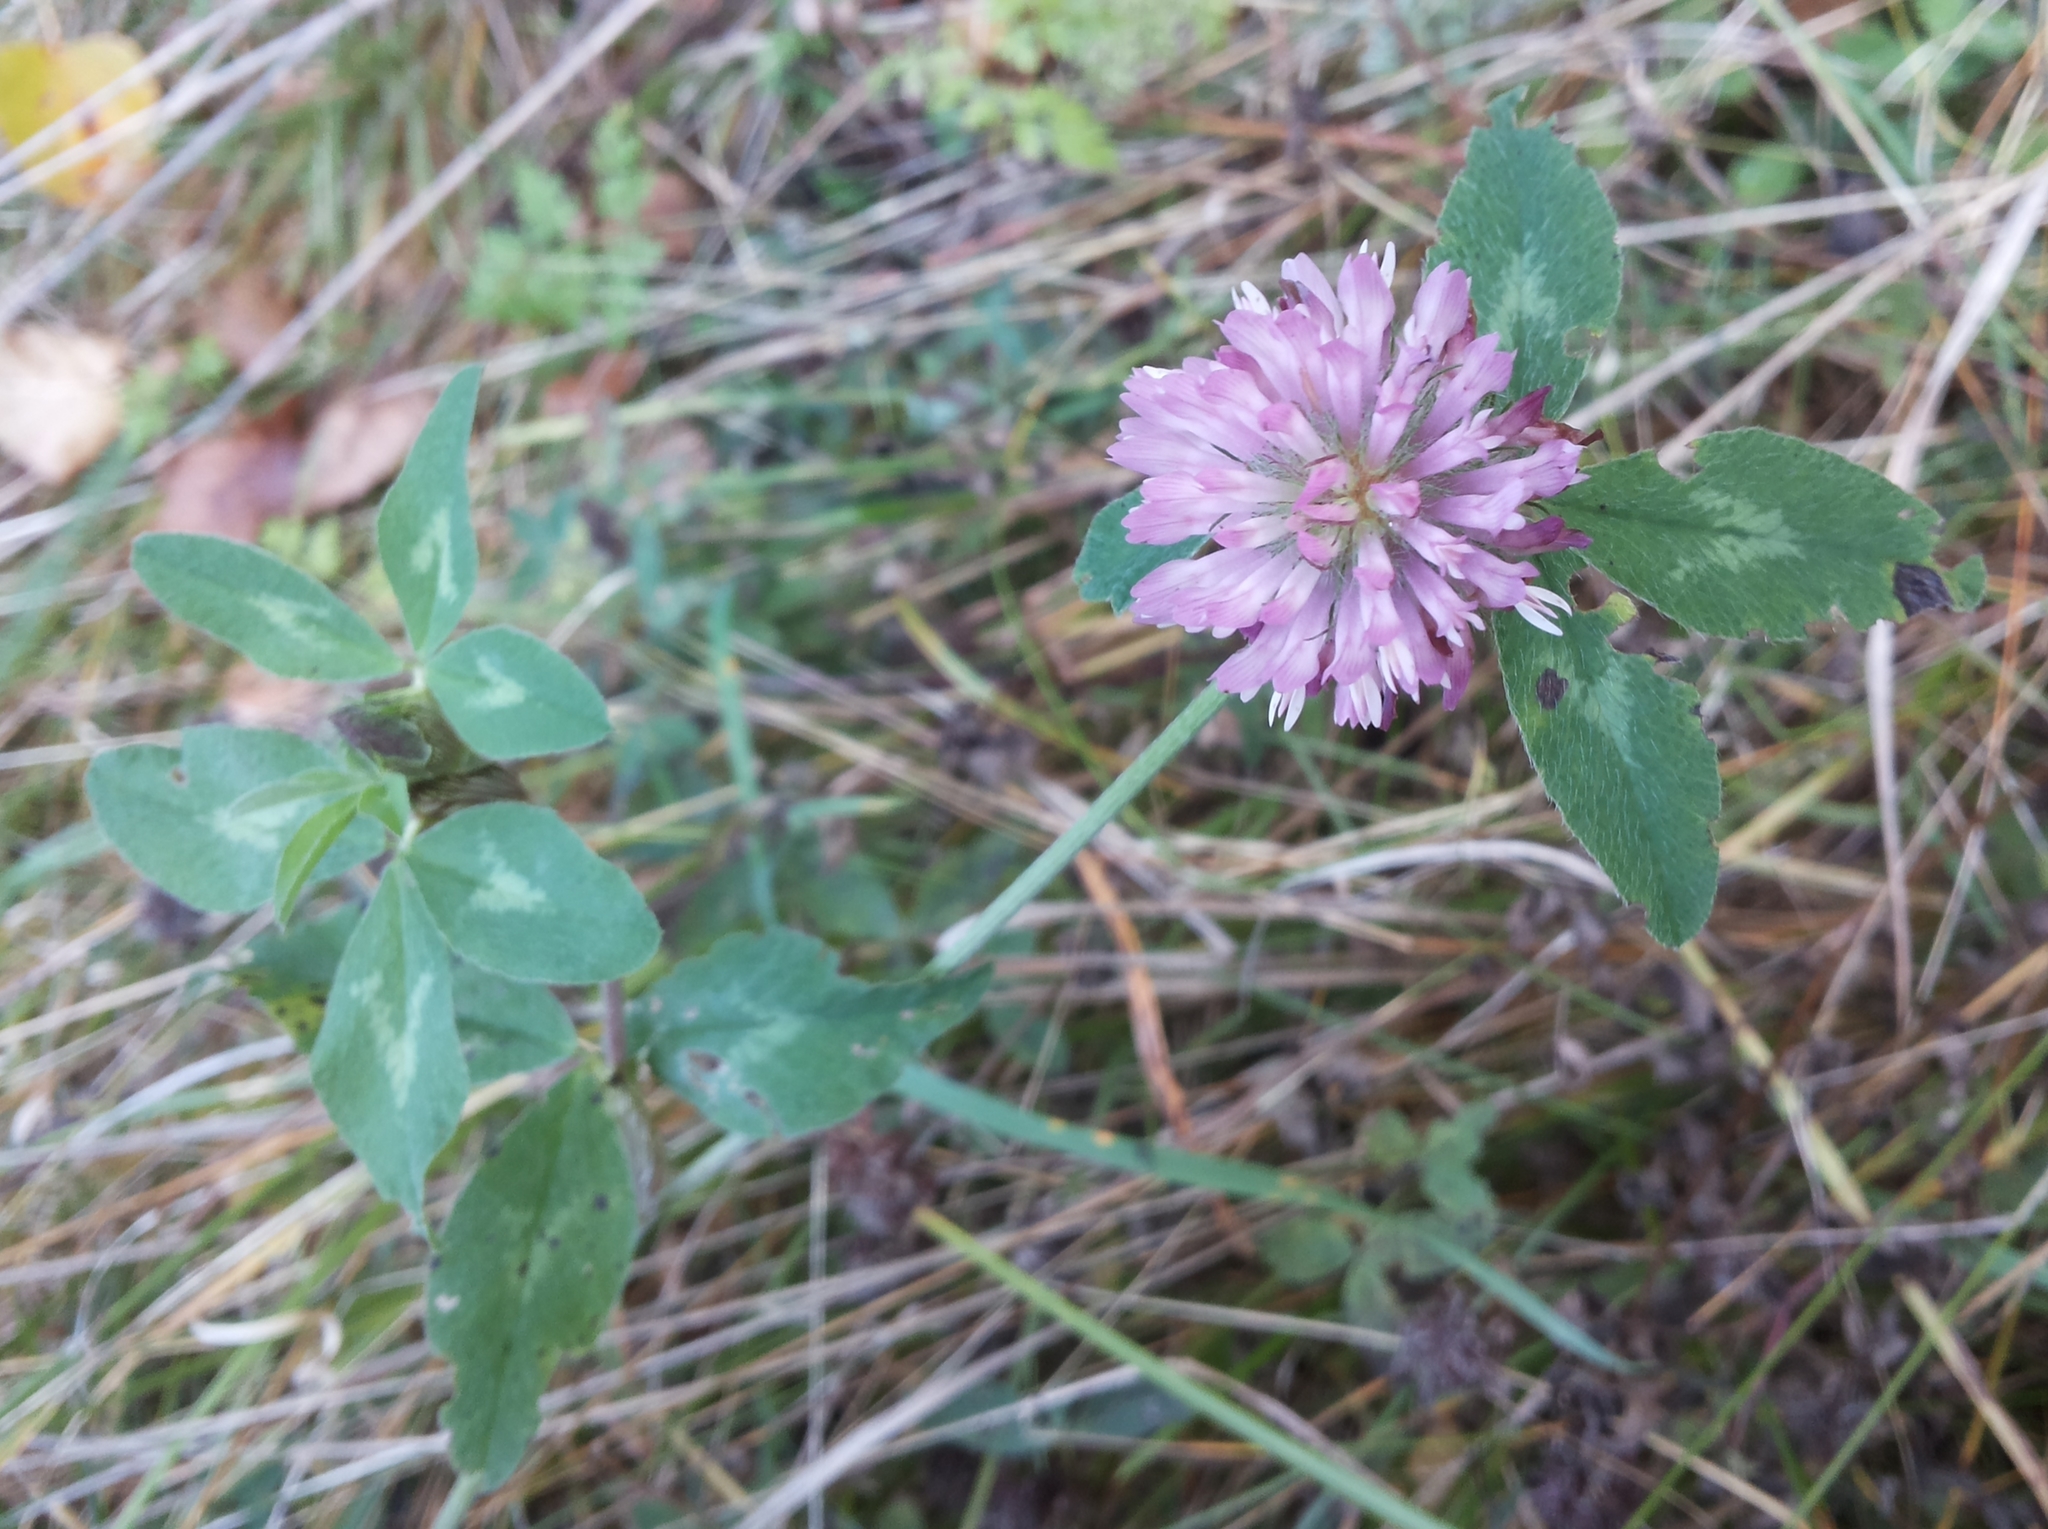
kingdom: Plantae
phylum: Tracheophyta
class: Magnoliopsida
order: Fabales
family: Fabaceae
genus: Trifolium
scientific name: Trifolium pratense
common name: Red clover
